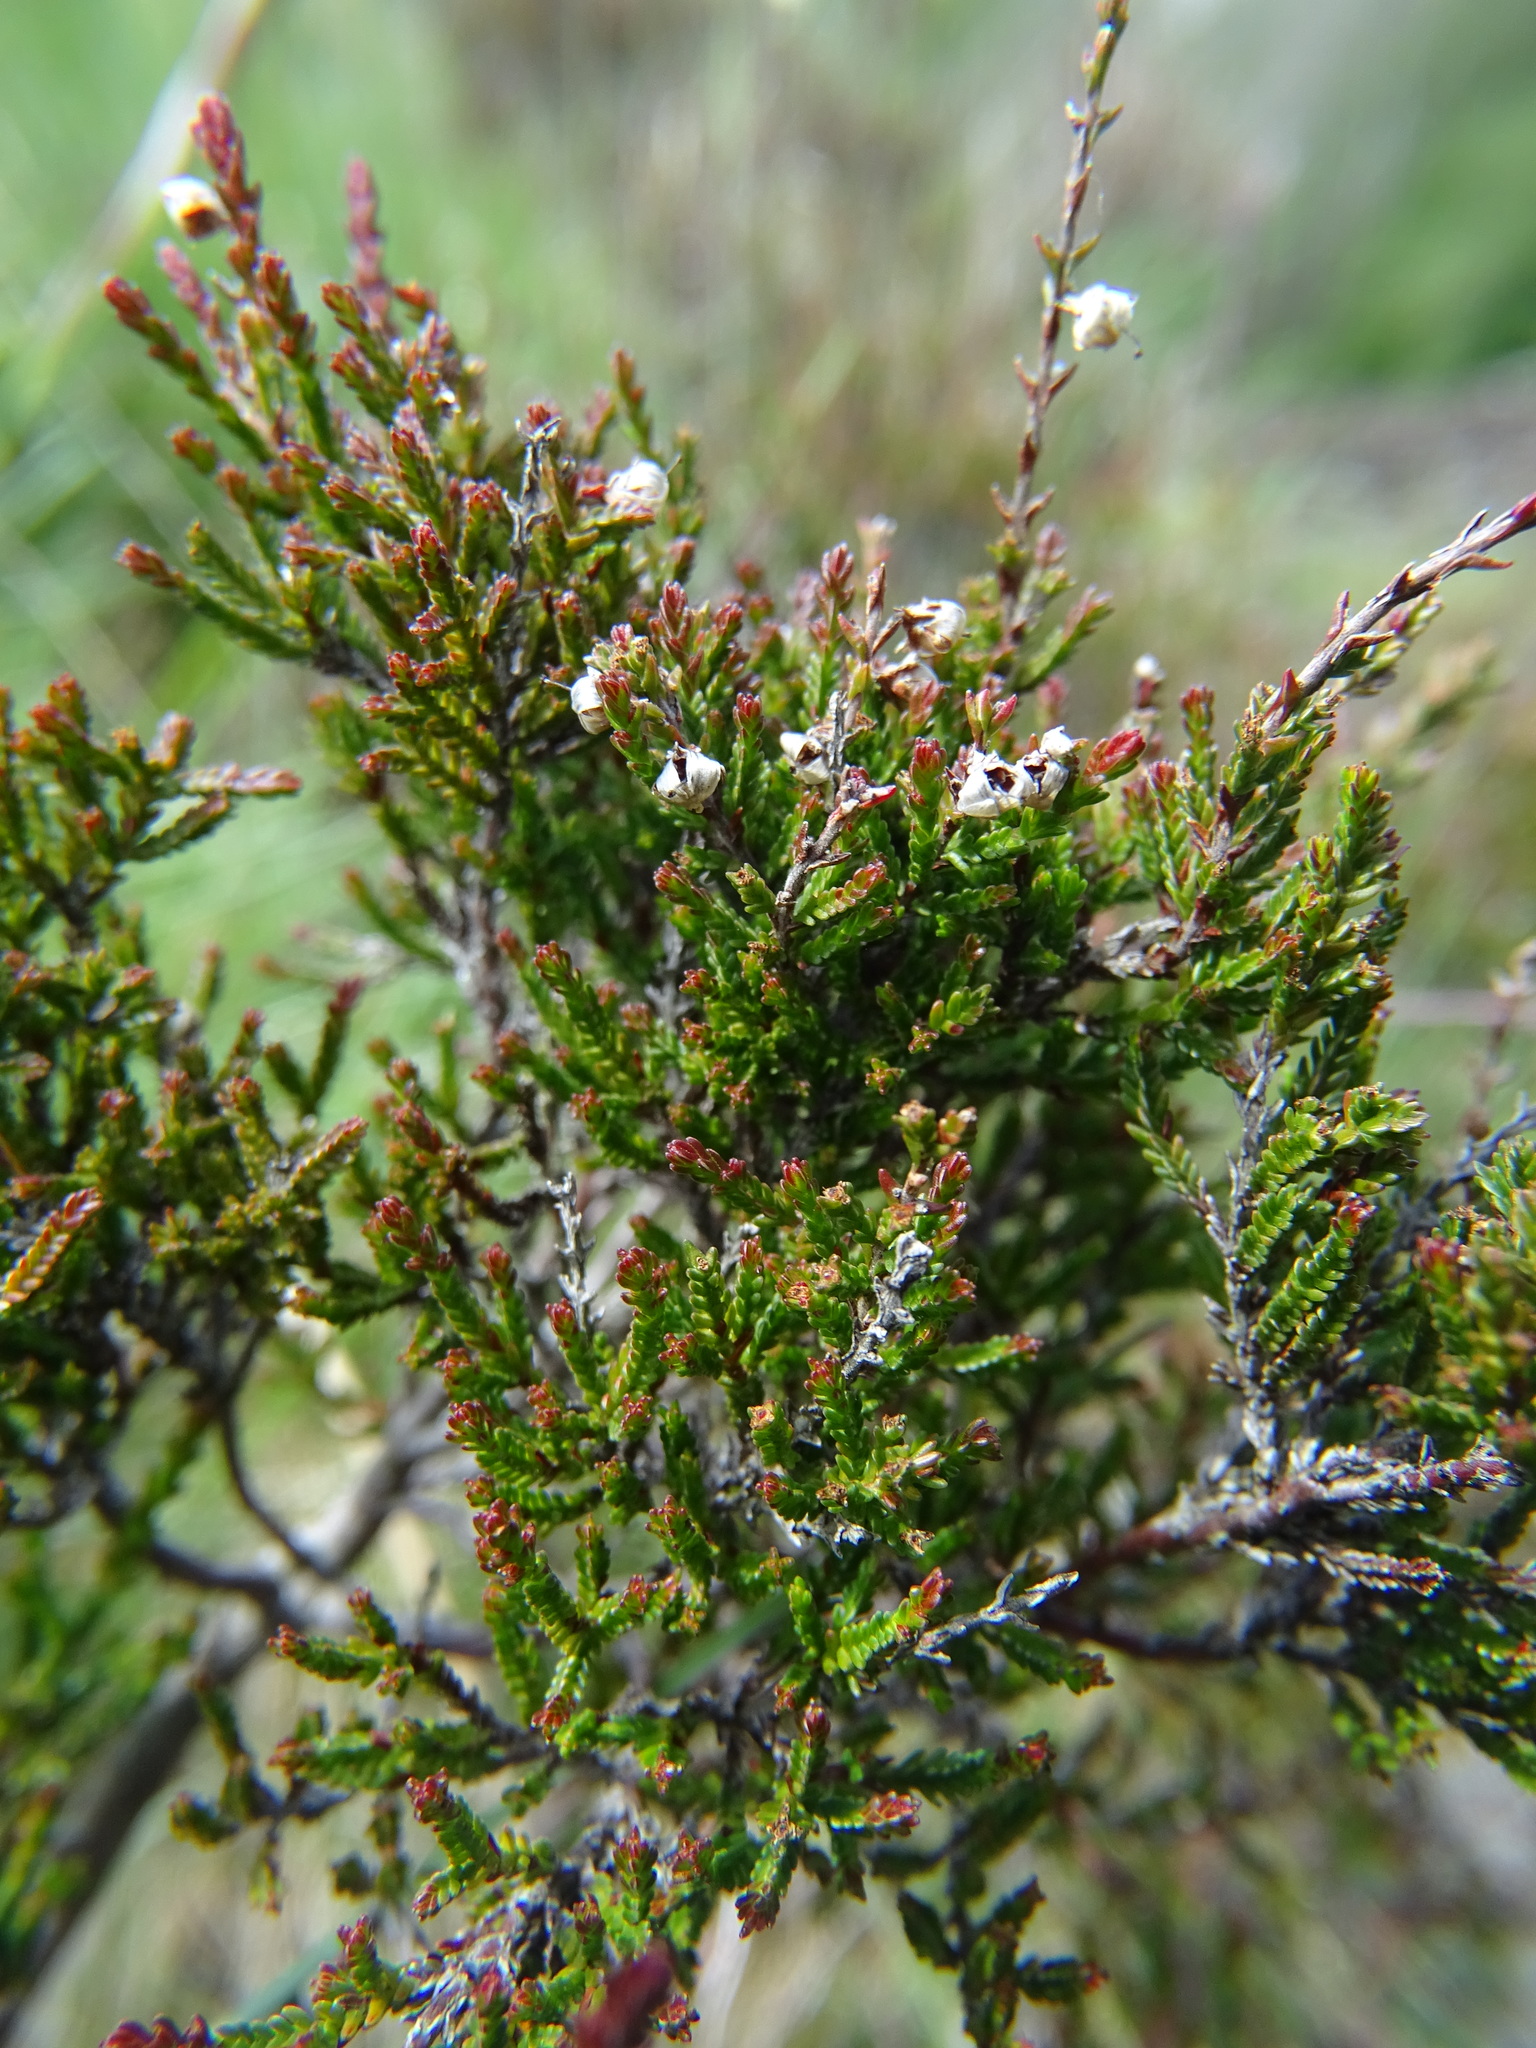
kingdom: Plantae
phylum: Tracheophyta
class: Magnoliopsida
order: Ericales
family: Ericaceae
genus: Calluna
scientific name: Calluna vulgaris
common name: Heather
